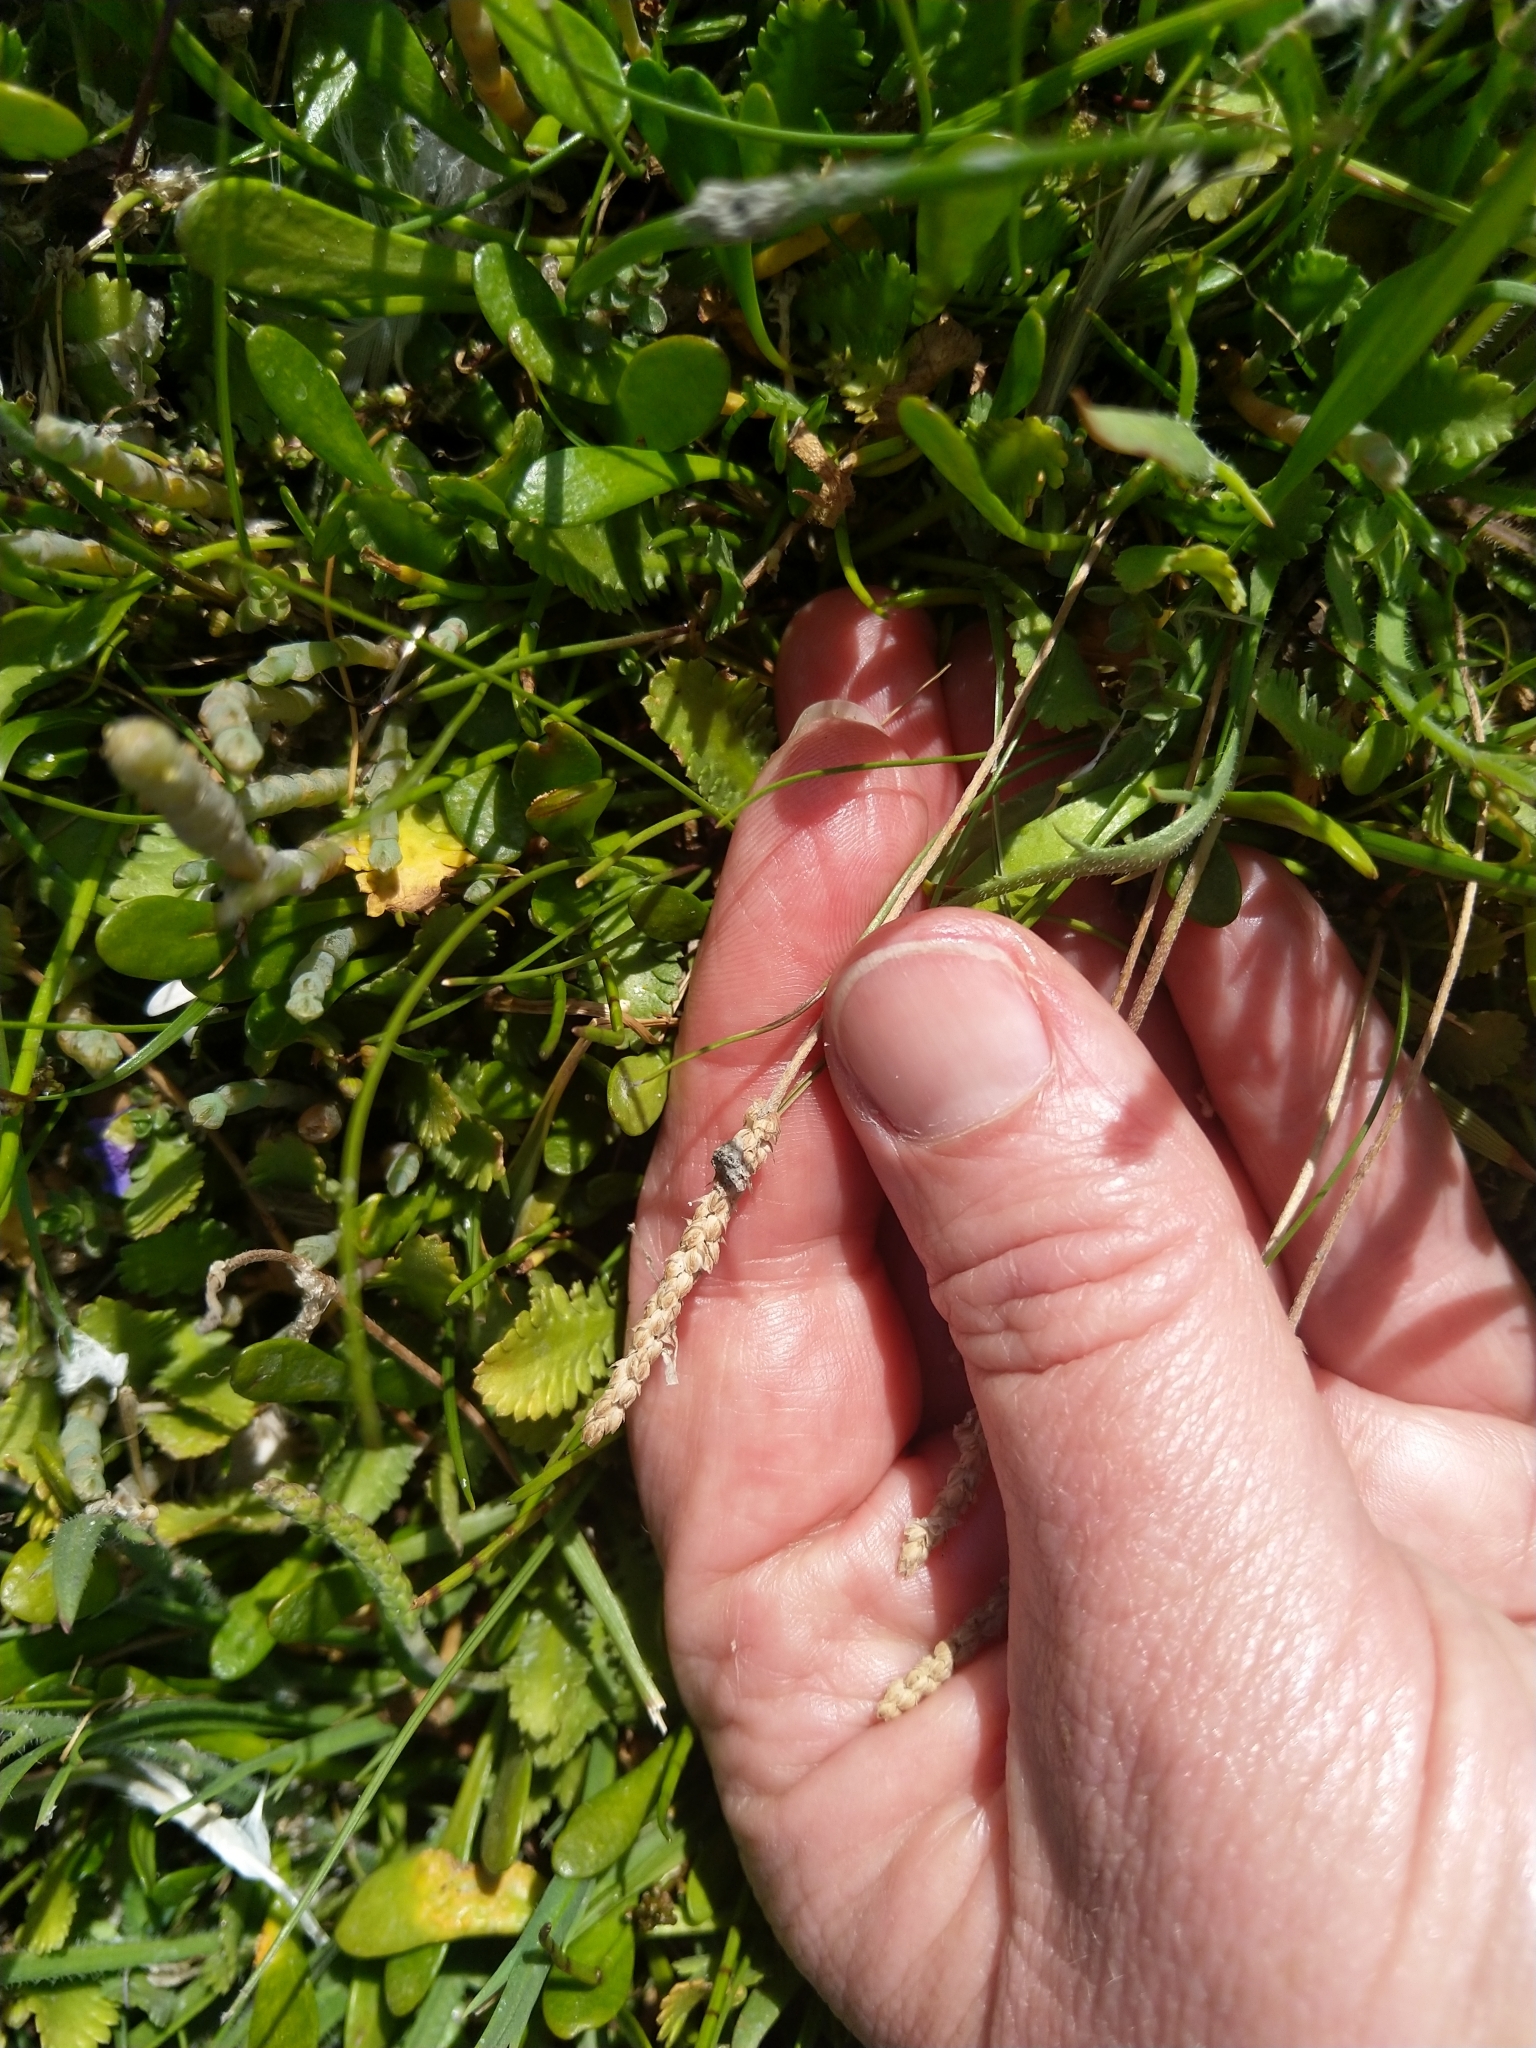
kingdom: Plantae
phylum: Tracheophyta
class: Magnoliopsida
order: Lamiales
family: Plantaginaceae
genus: Plantago
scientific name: Plantago coronopus
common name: Buck's-horn plantain
